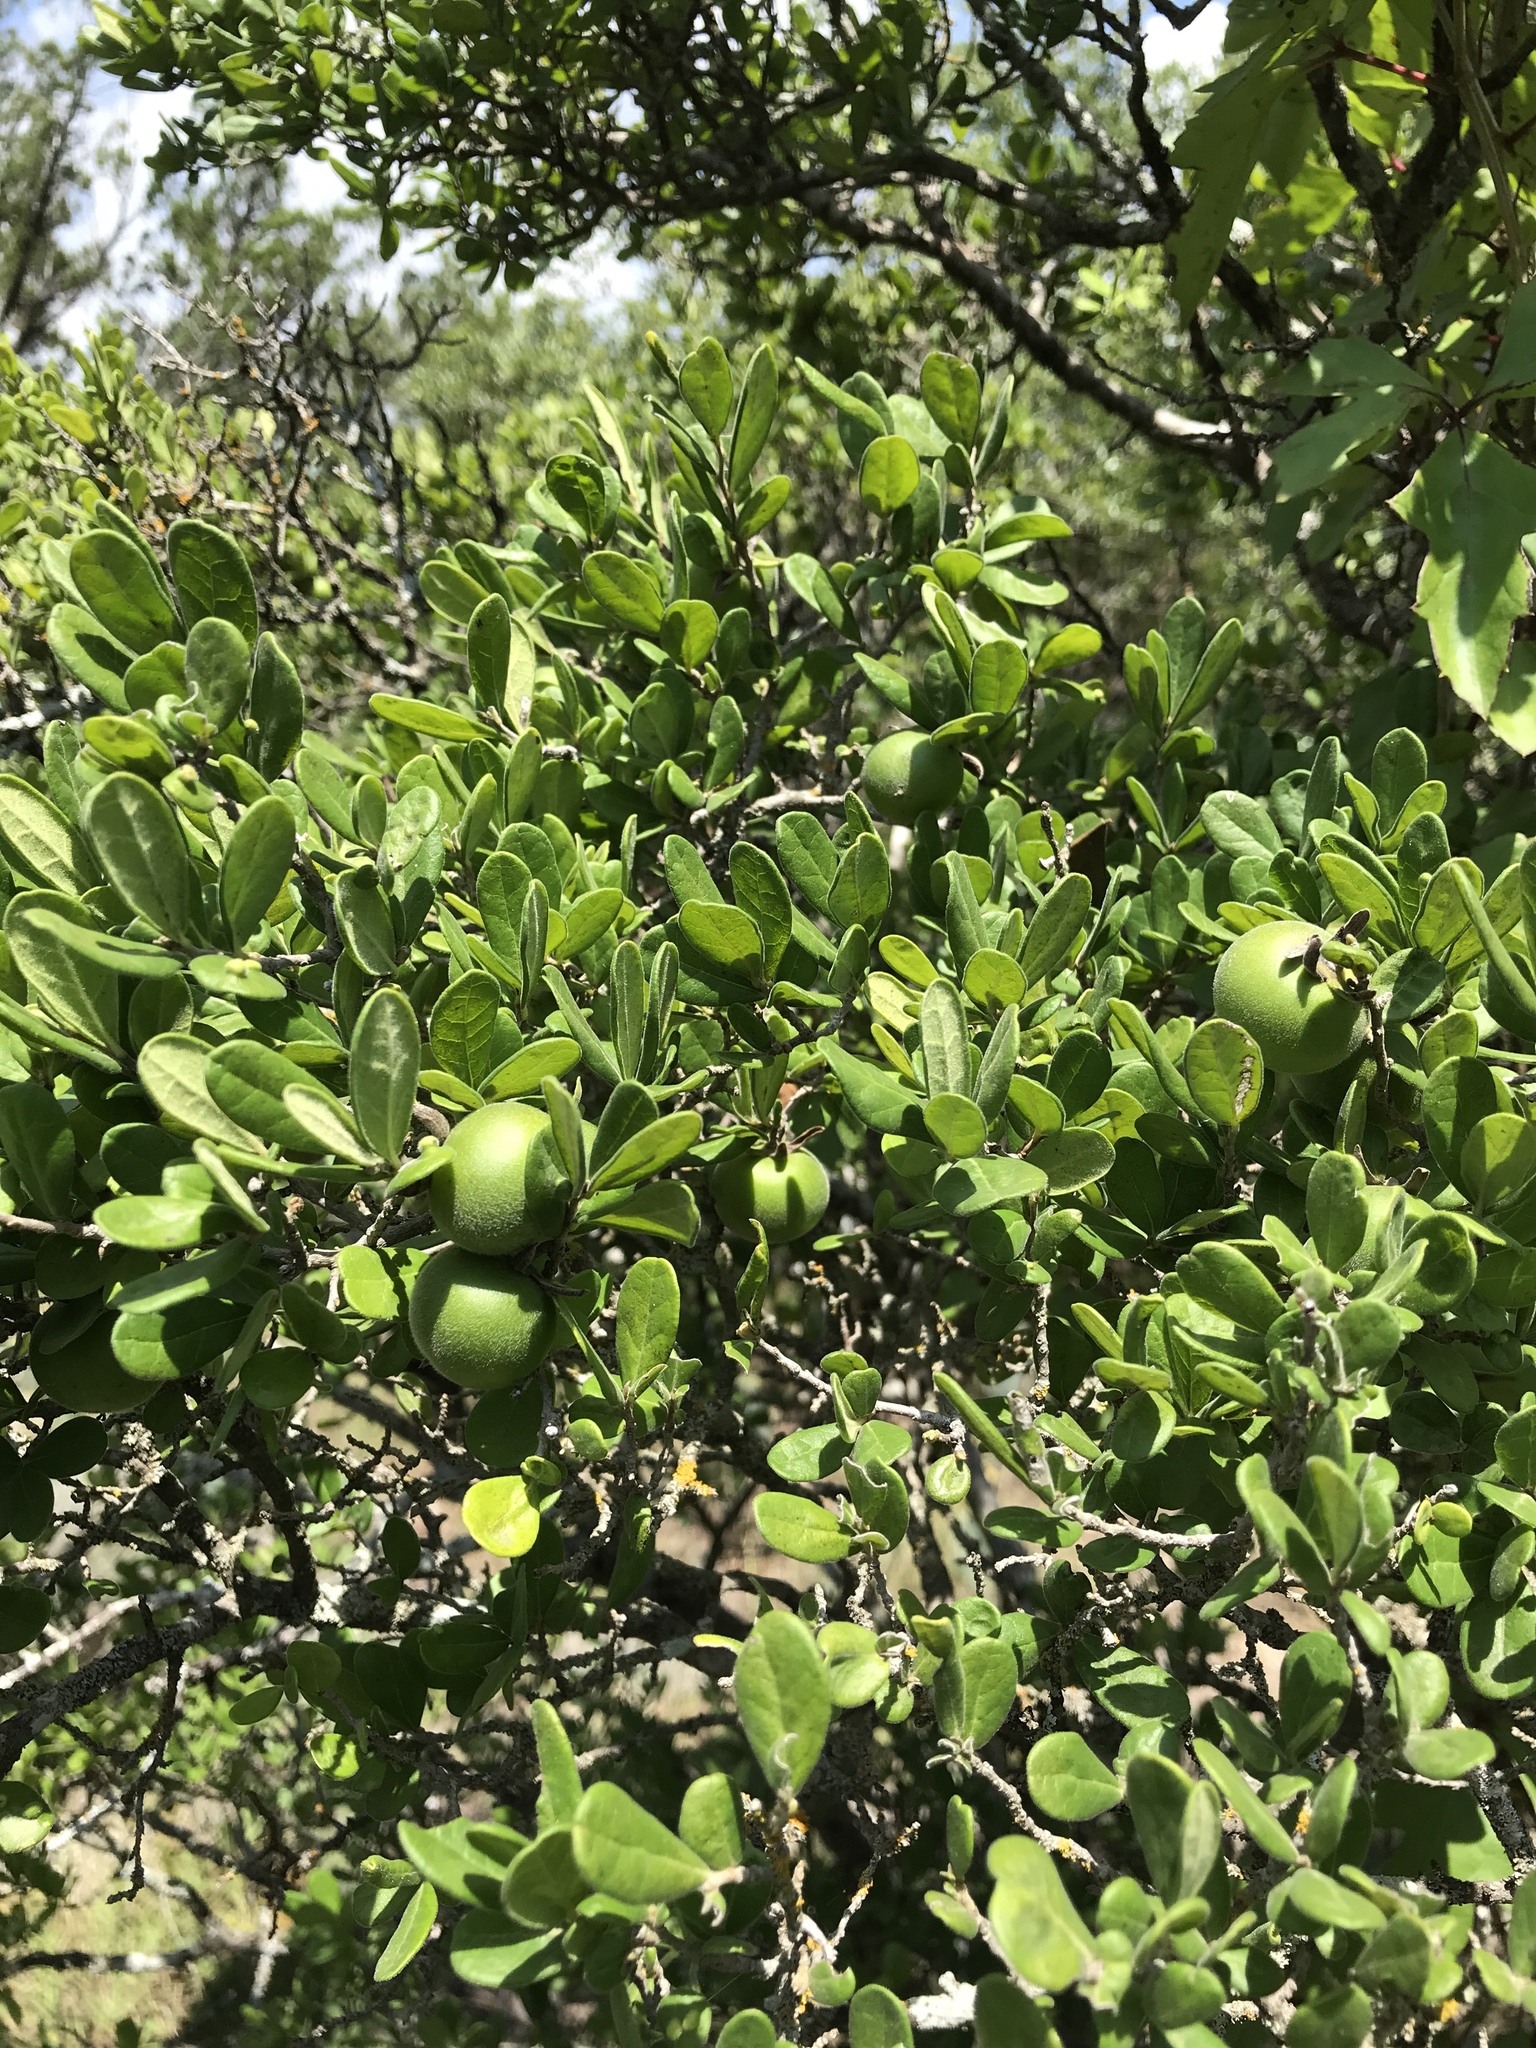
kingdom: Plantae
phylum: Tracheophyta
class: Magnoliopsida
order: Ericales
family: Ebenaceae
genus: Diospyros
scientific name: Diospyros texana
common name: Texas persimmon
